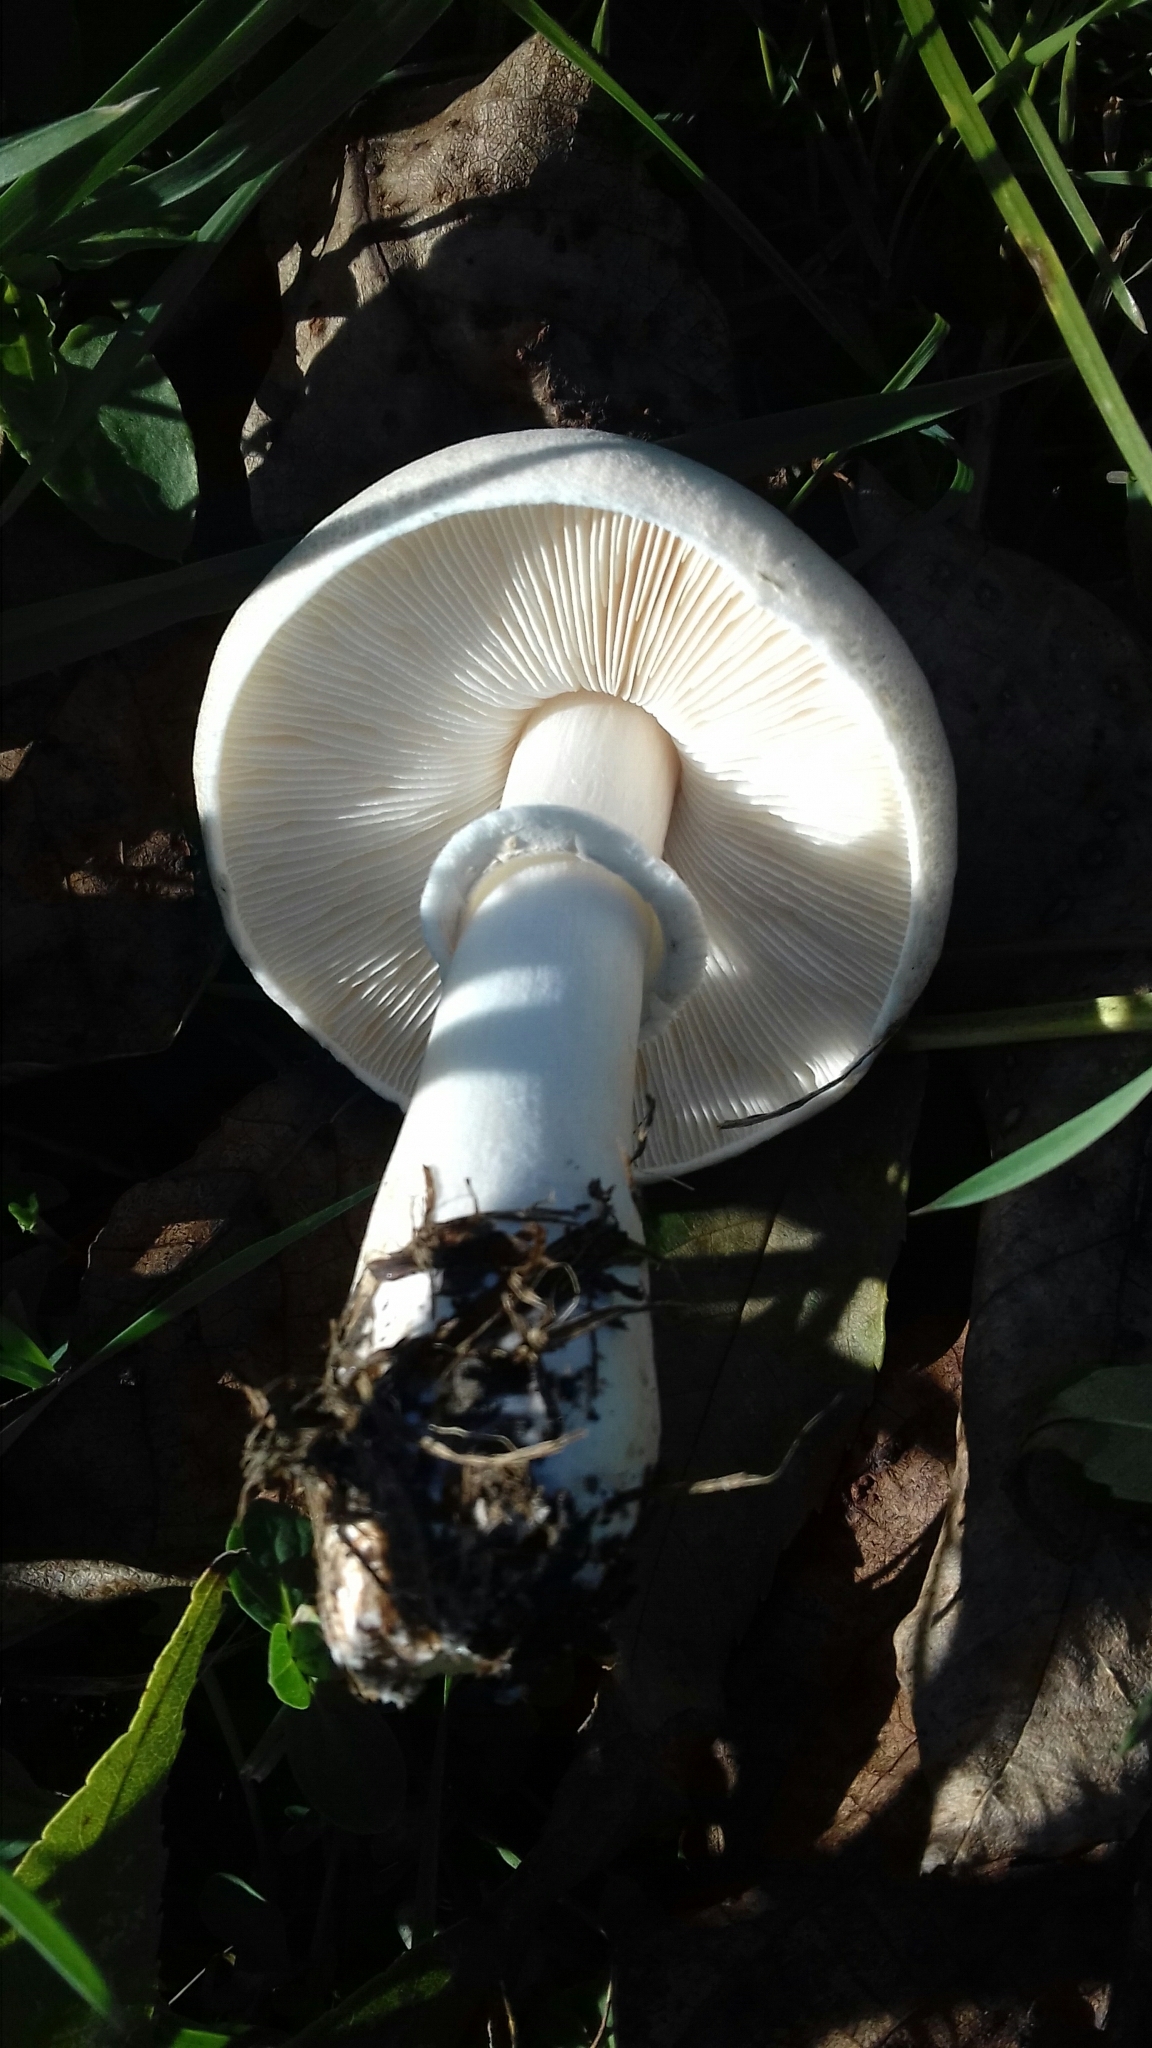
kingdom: Fungi
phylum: Basidiomycota
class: Agaricomycetes
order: Agaricales
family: Agaricaceae
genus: Leucoagaricus
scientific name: Leucoagaricus leucothites
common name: White dapperling
